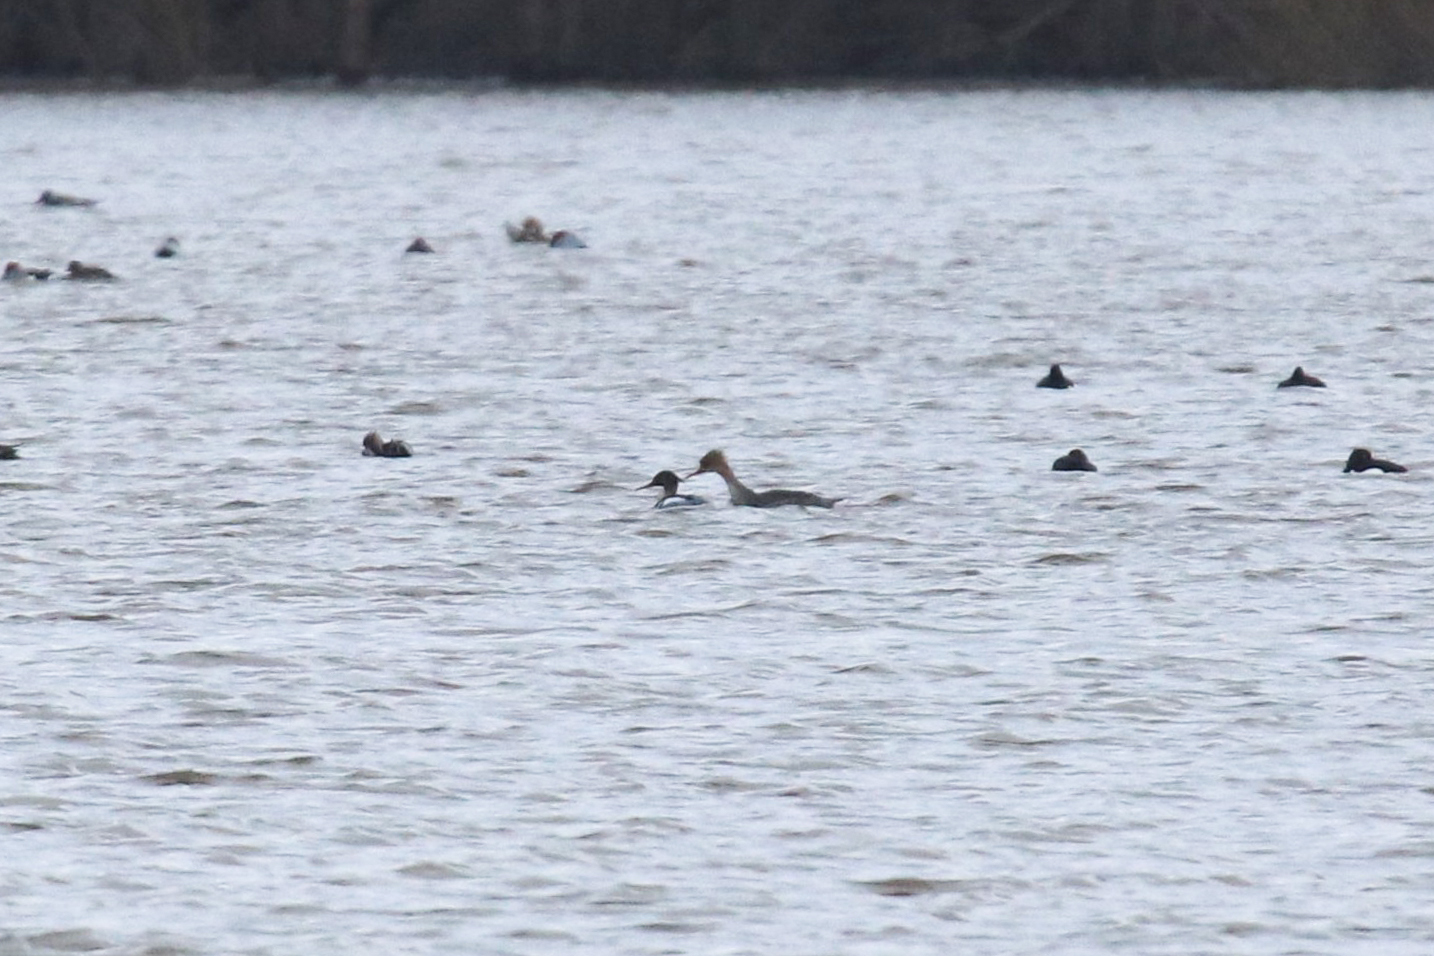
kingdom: Animalia
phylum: Chordata
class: Aves
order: Anseriformes
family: Anatidae
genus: Mergus
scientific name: Mergus serrator
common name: Red-breasted merganser
